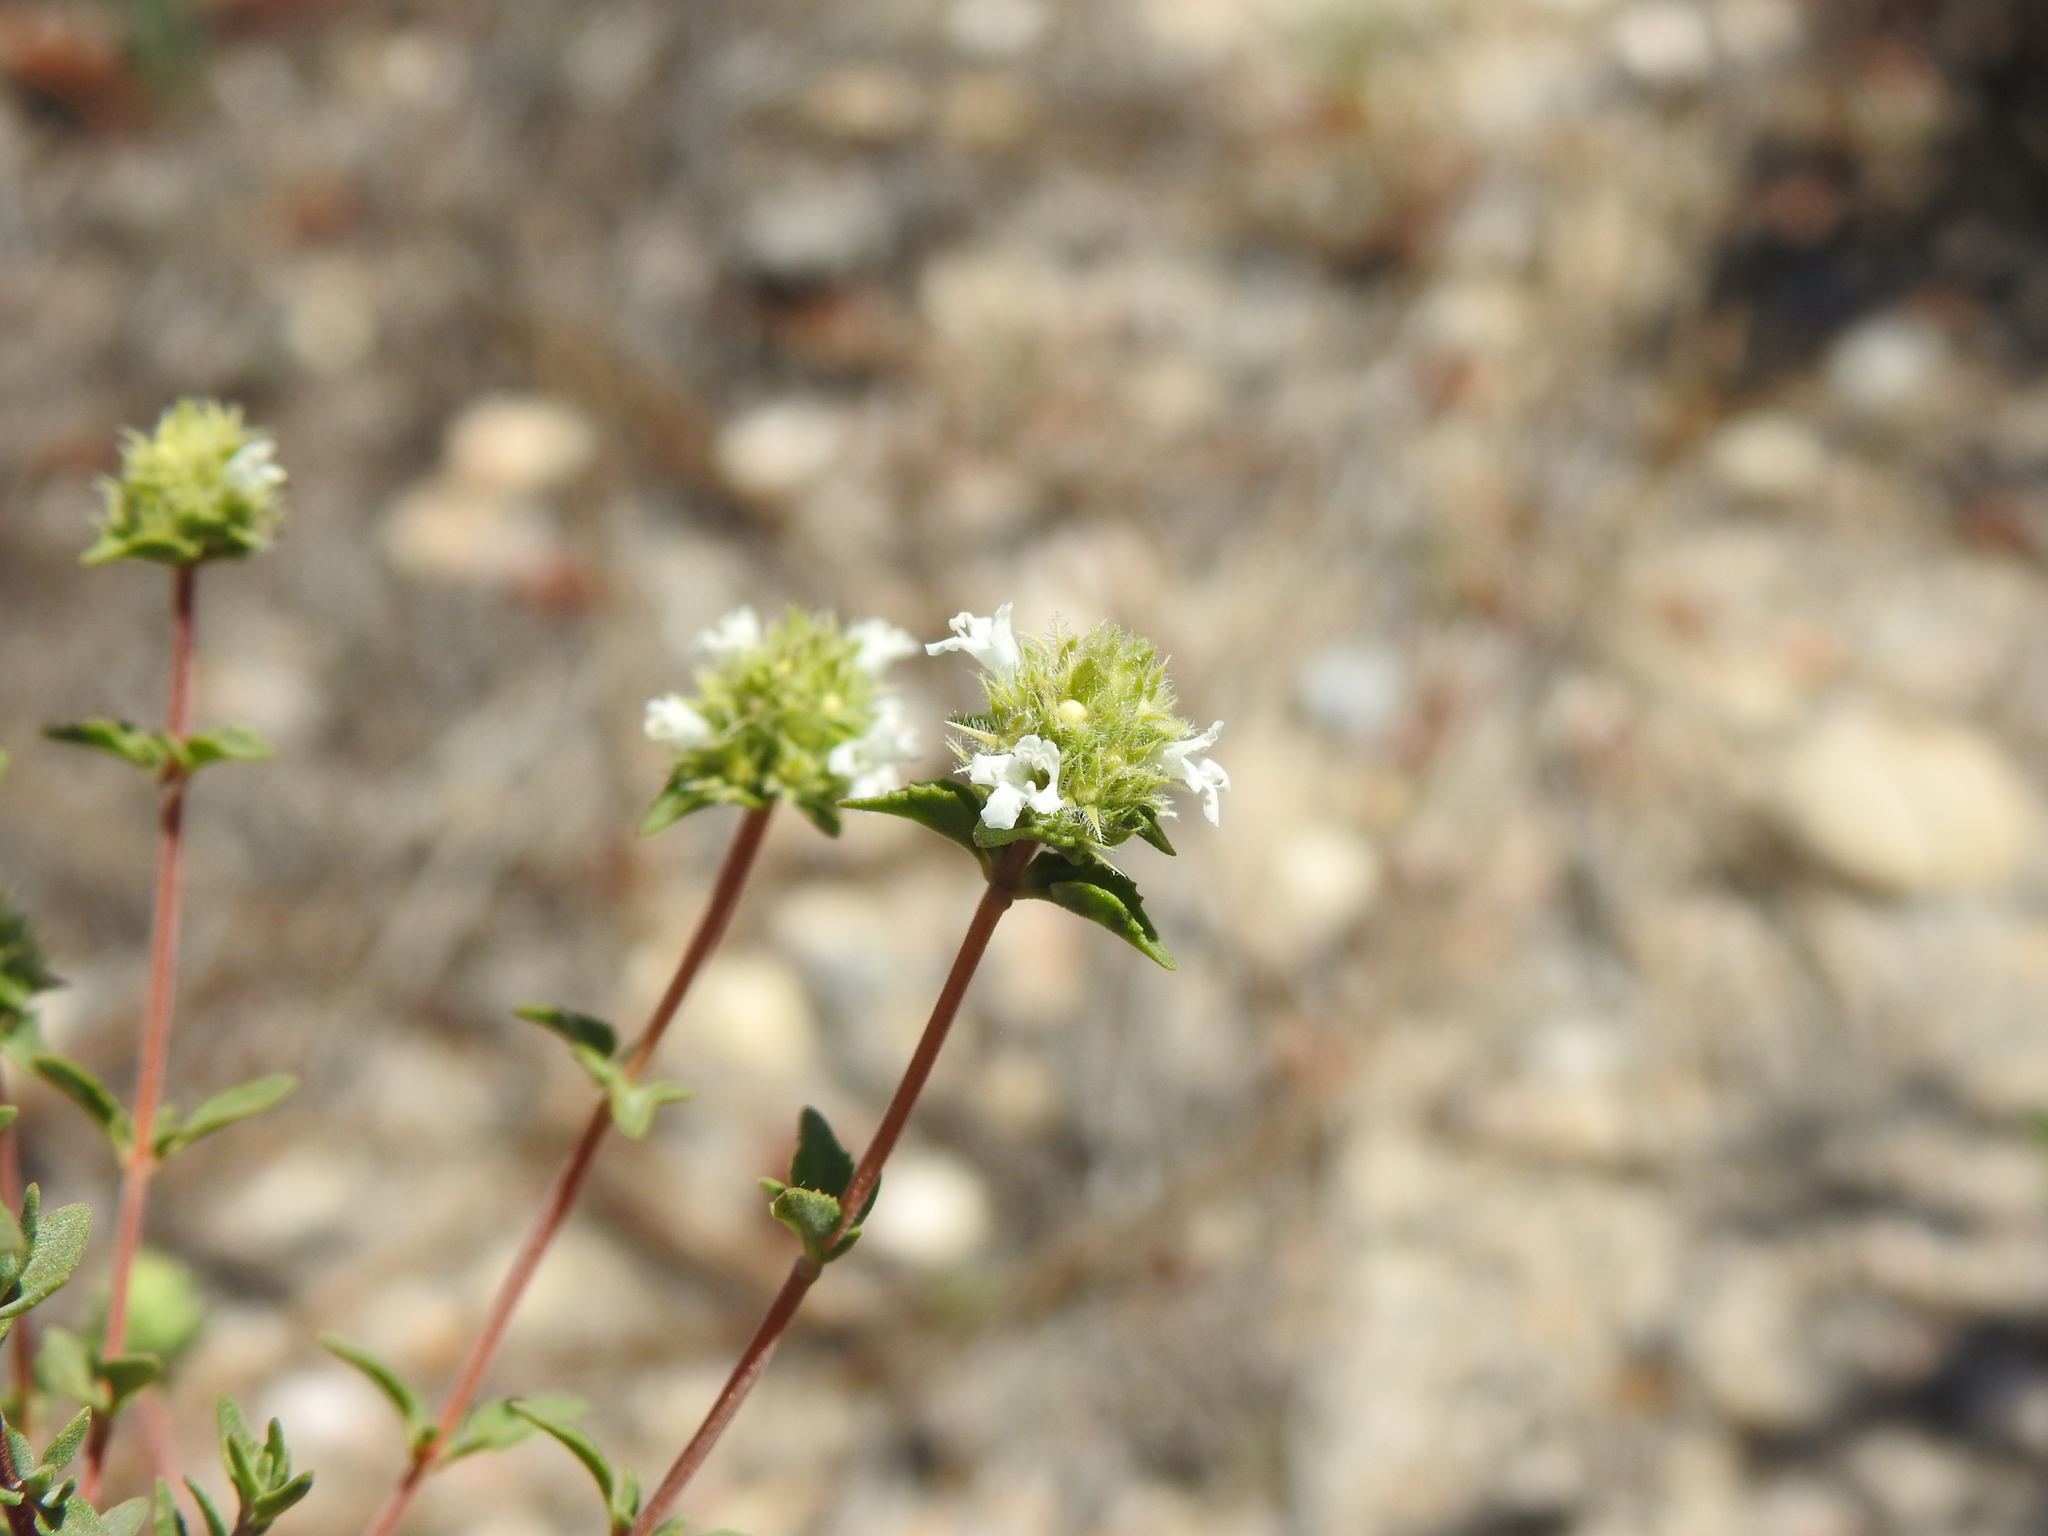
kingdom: Plantae
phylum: Tracheophyta
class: Magnoliopsida
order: Lamiales
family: Lamiaceae
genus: Thymus
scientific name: Thymus albicans
